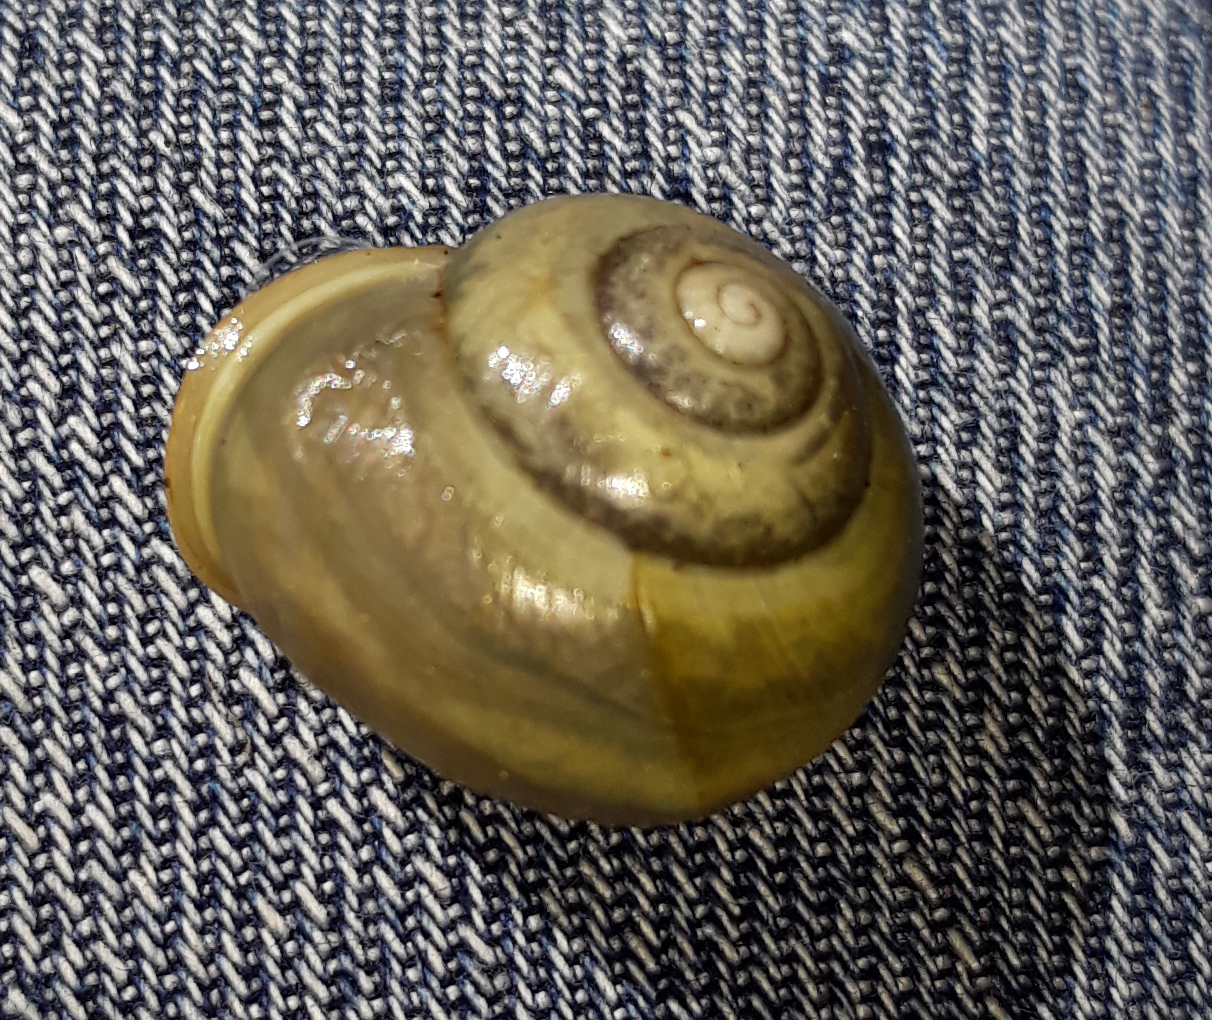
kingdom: Animalia
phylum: Mollusca
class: Gastropoda
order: Stylommatophora
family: Helicidae
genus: Cepaea
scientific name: Cepaea hortensis
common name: White-lip gardensnail
